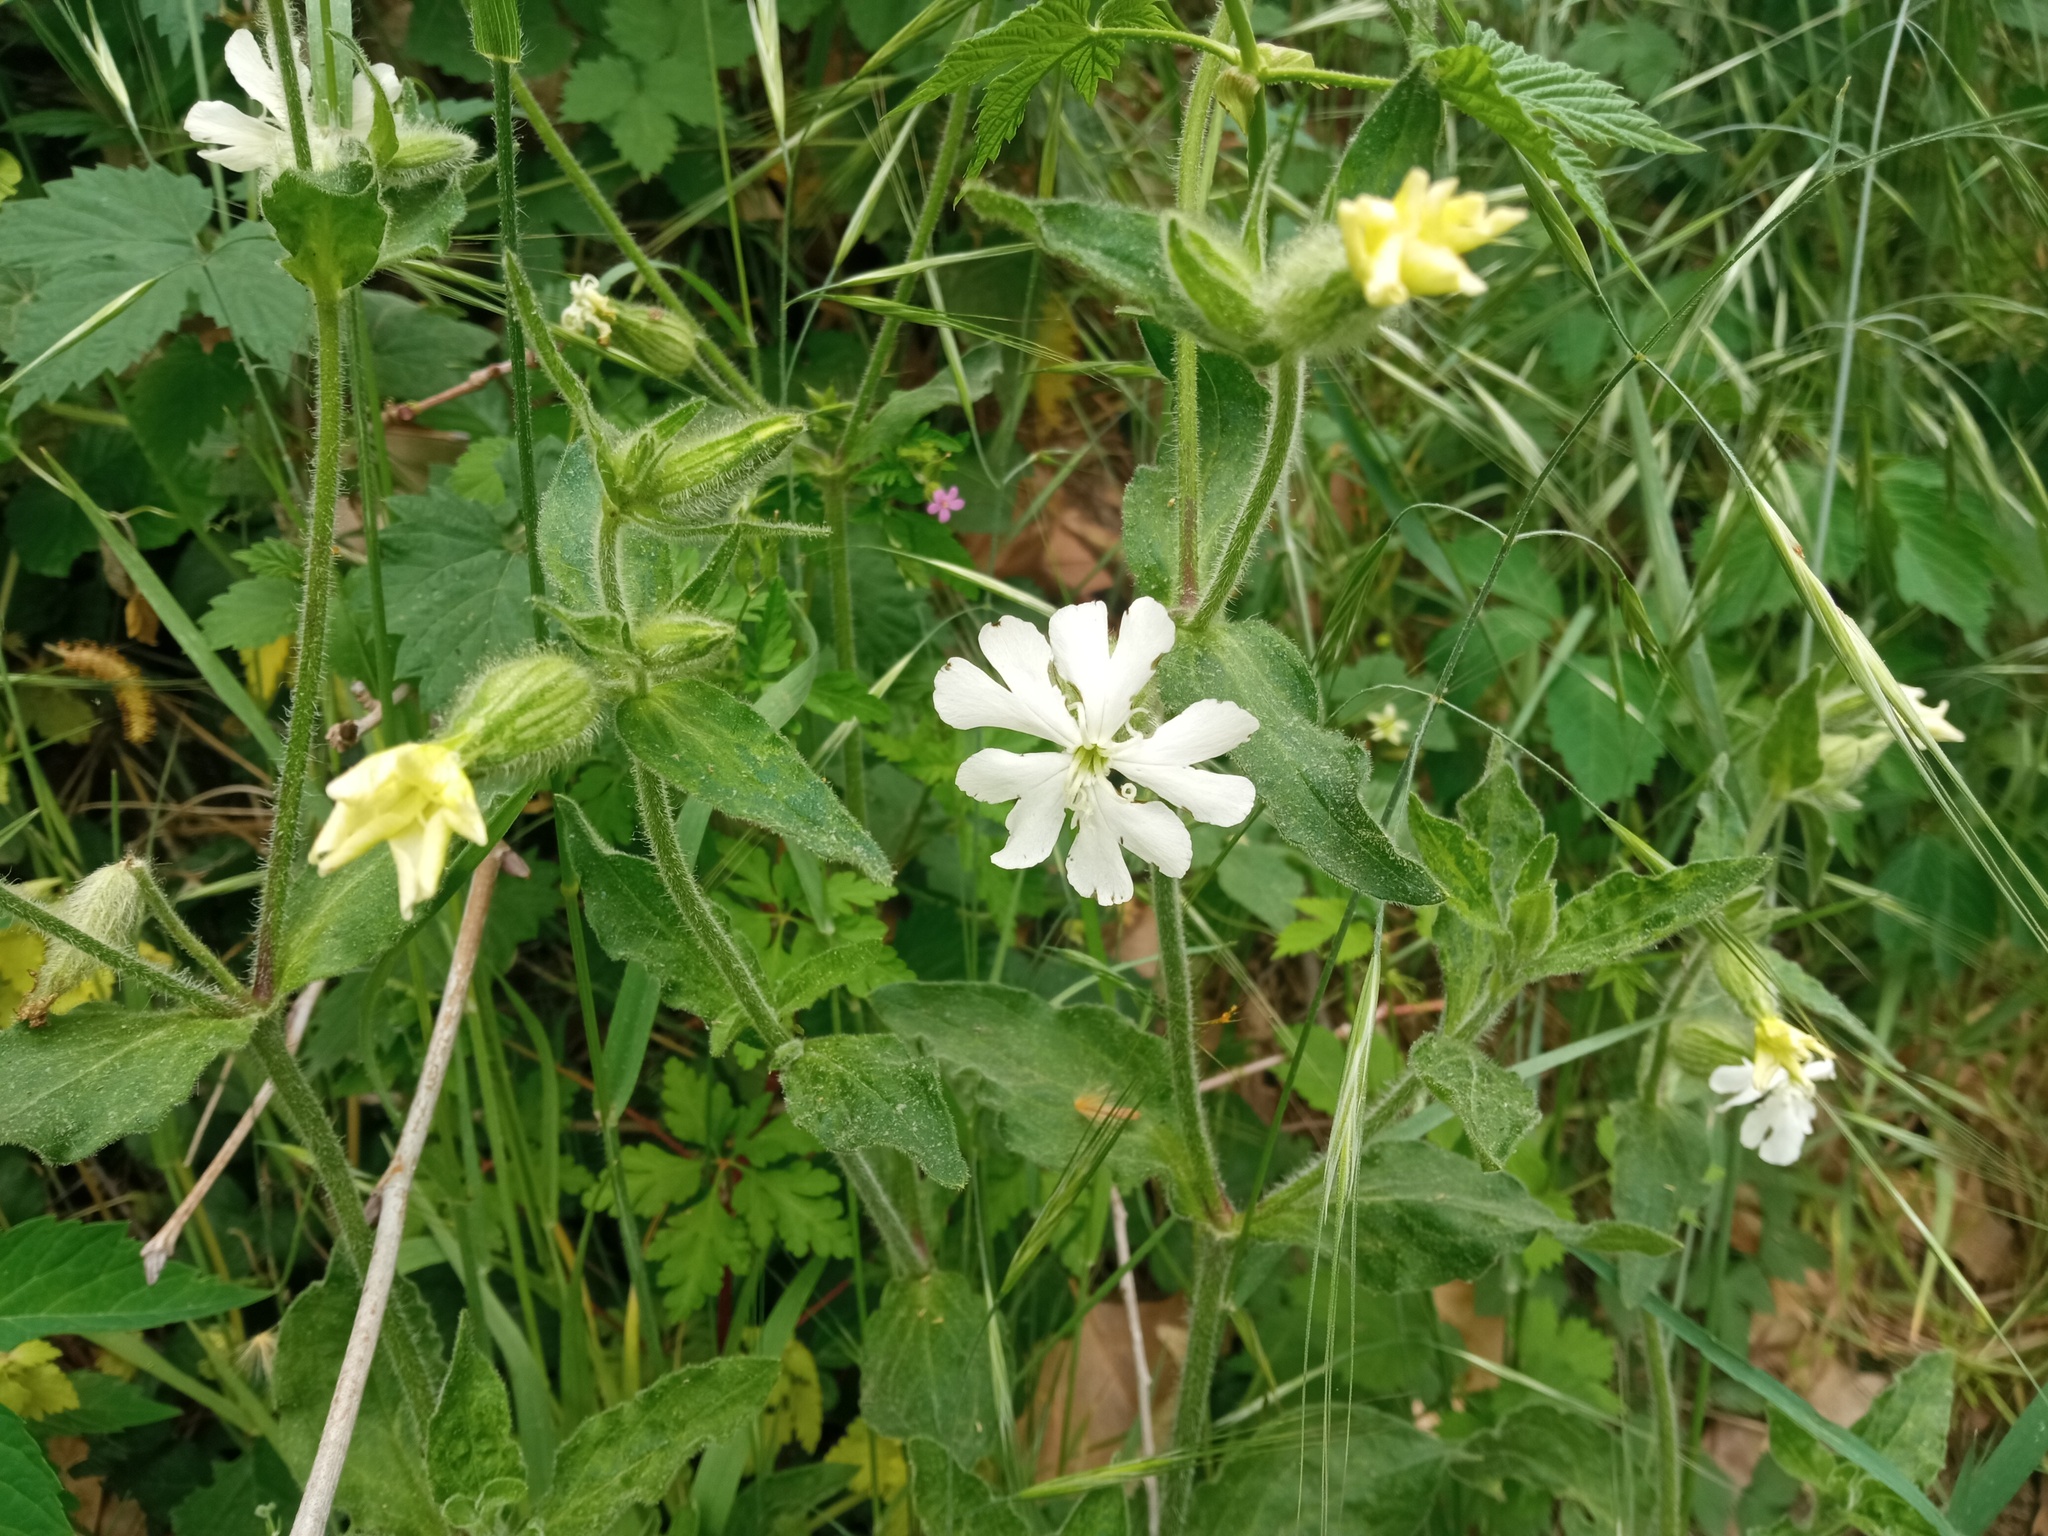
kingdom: Plantae
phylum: Tracheophyta
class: Magnoliopsida
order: Caryophyllales
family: Caryophyllaceae
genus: Silene
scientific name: Silene latifolia
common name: White campion
